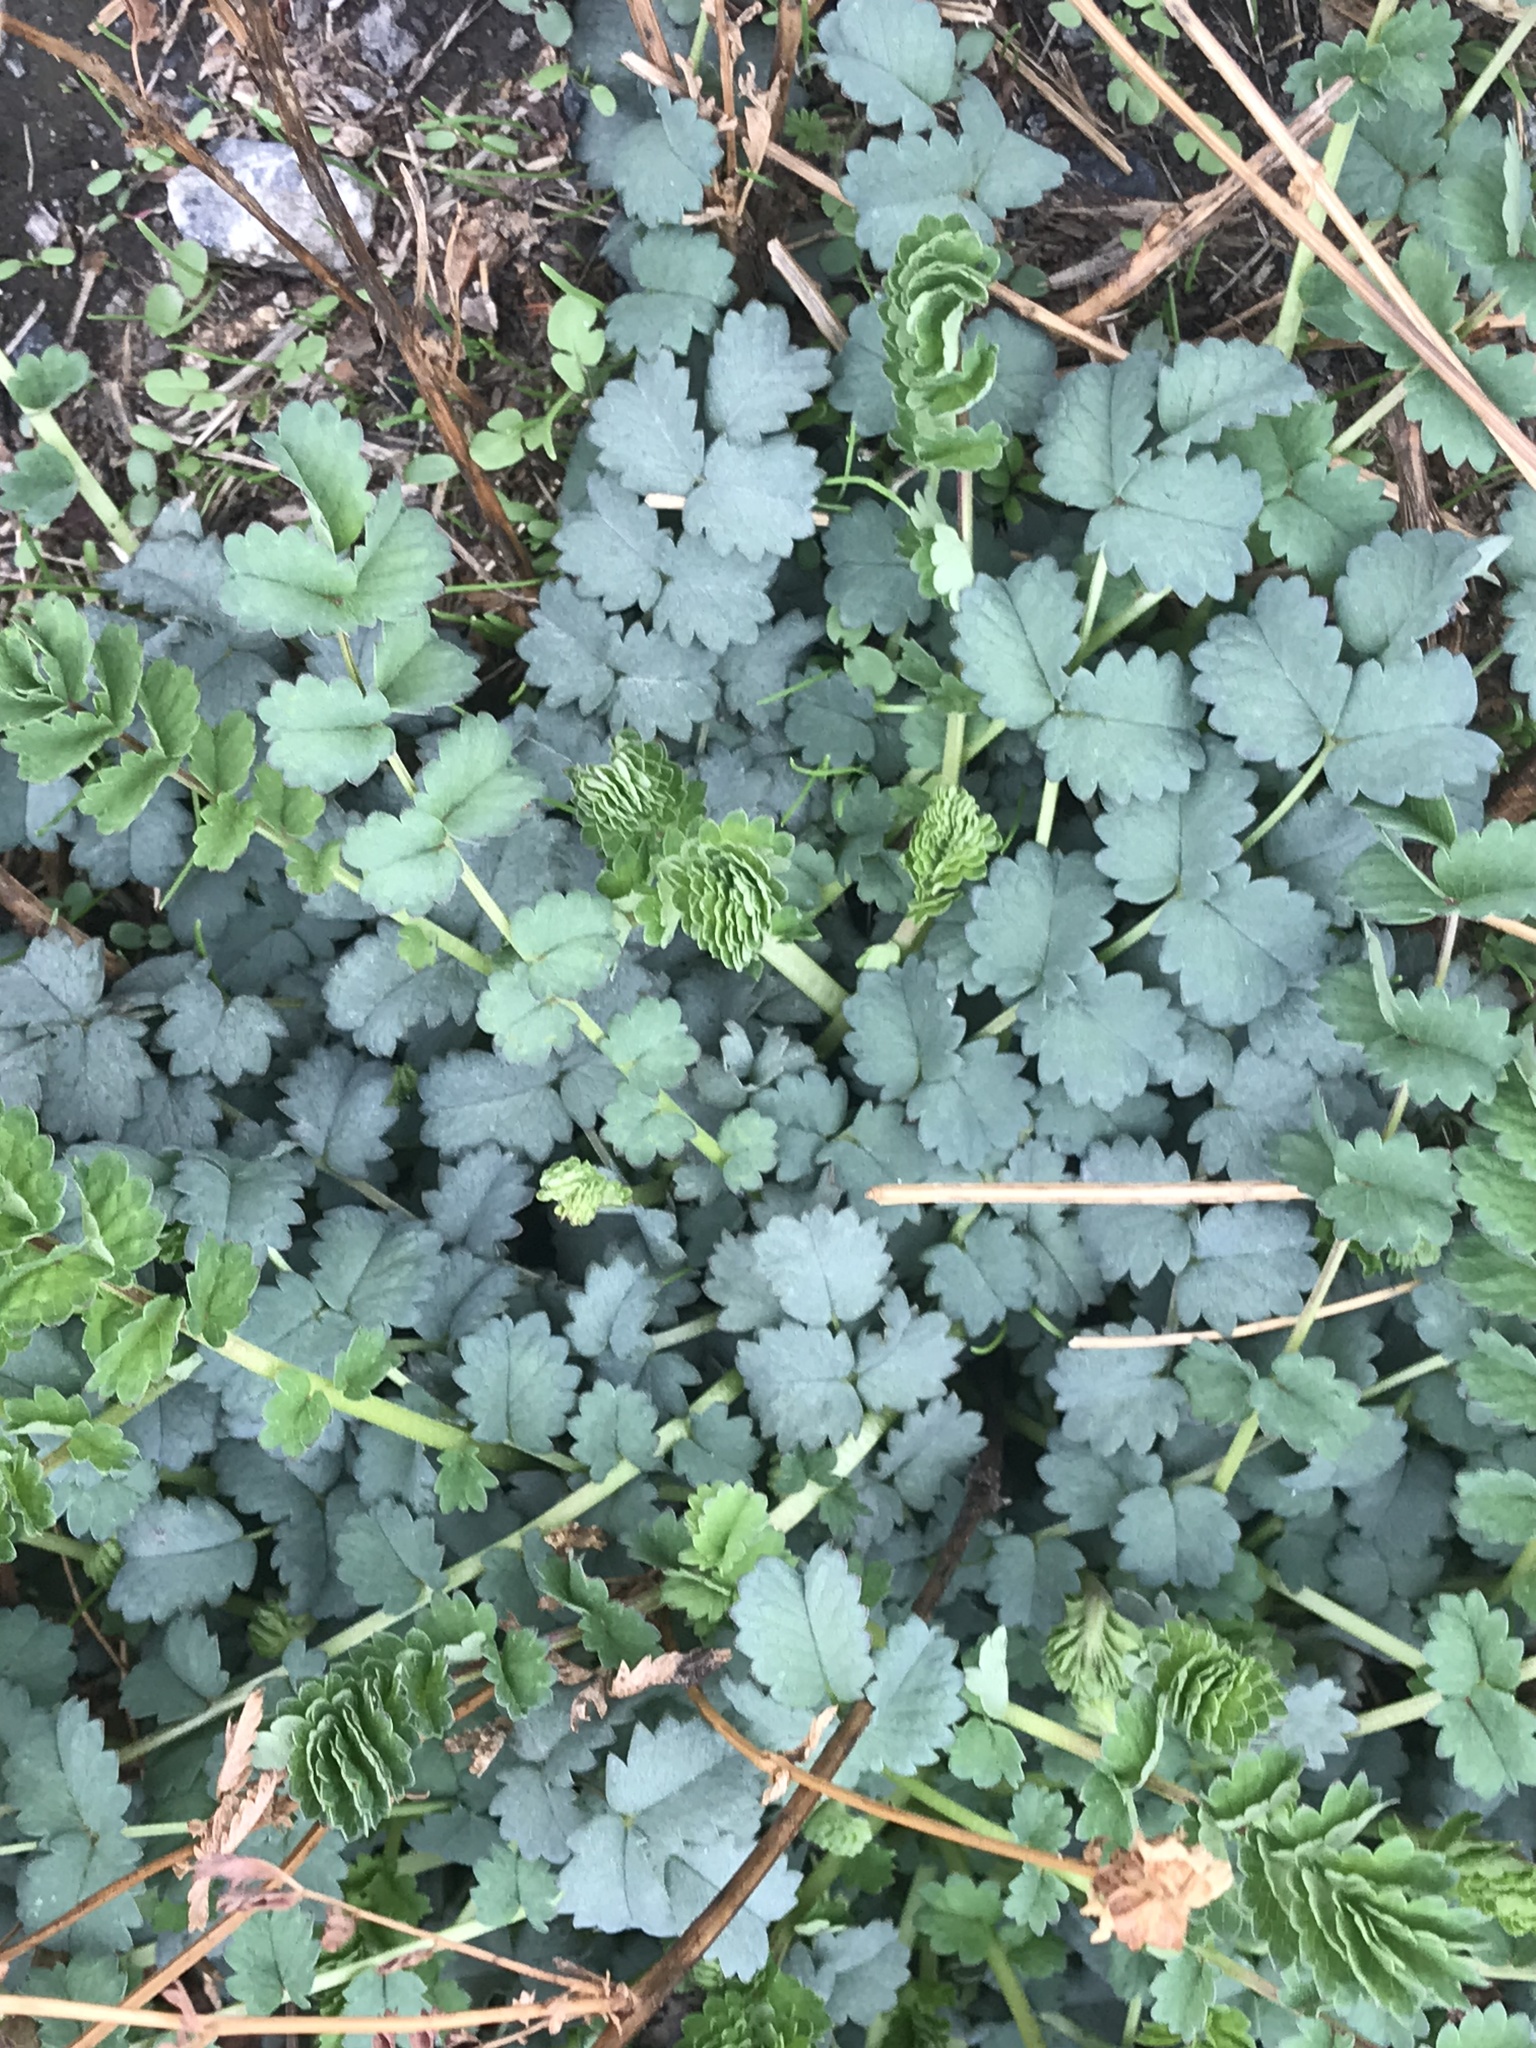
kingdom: Plantae
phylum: Tracheophyta
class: Magnoliopsida
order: Rosales
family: Rosaceae
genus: Poterium
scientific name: Poterium sanguisorba
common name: Salad burnet
